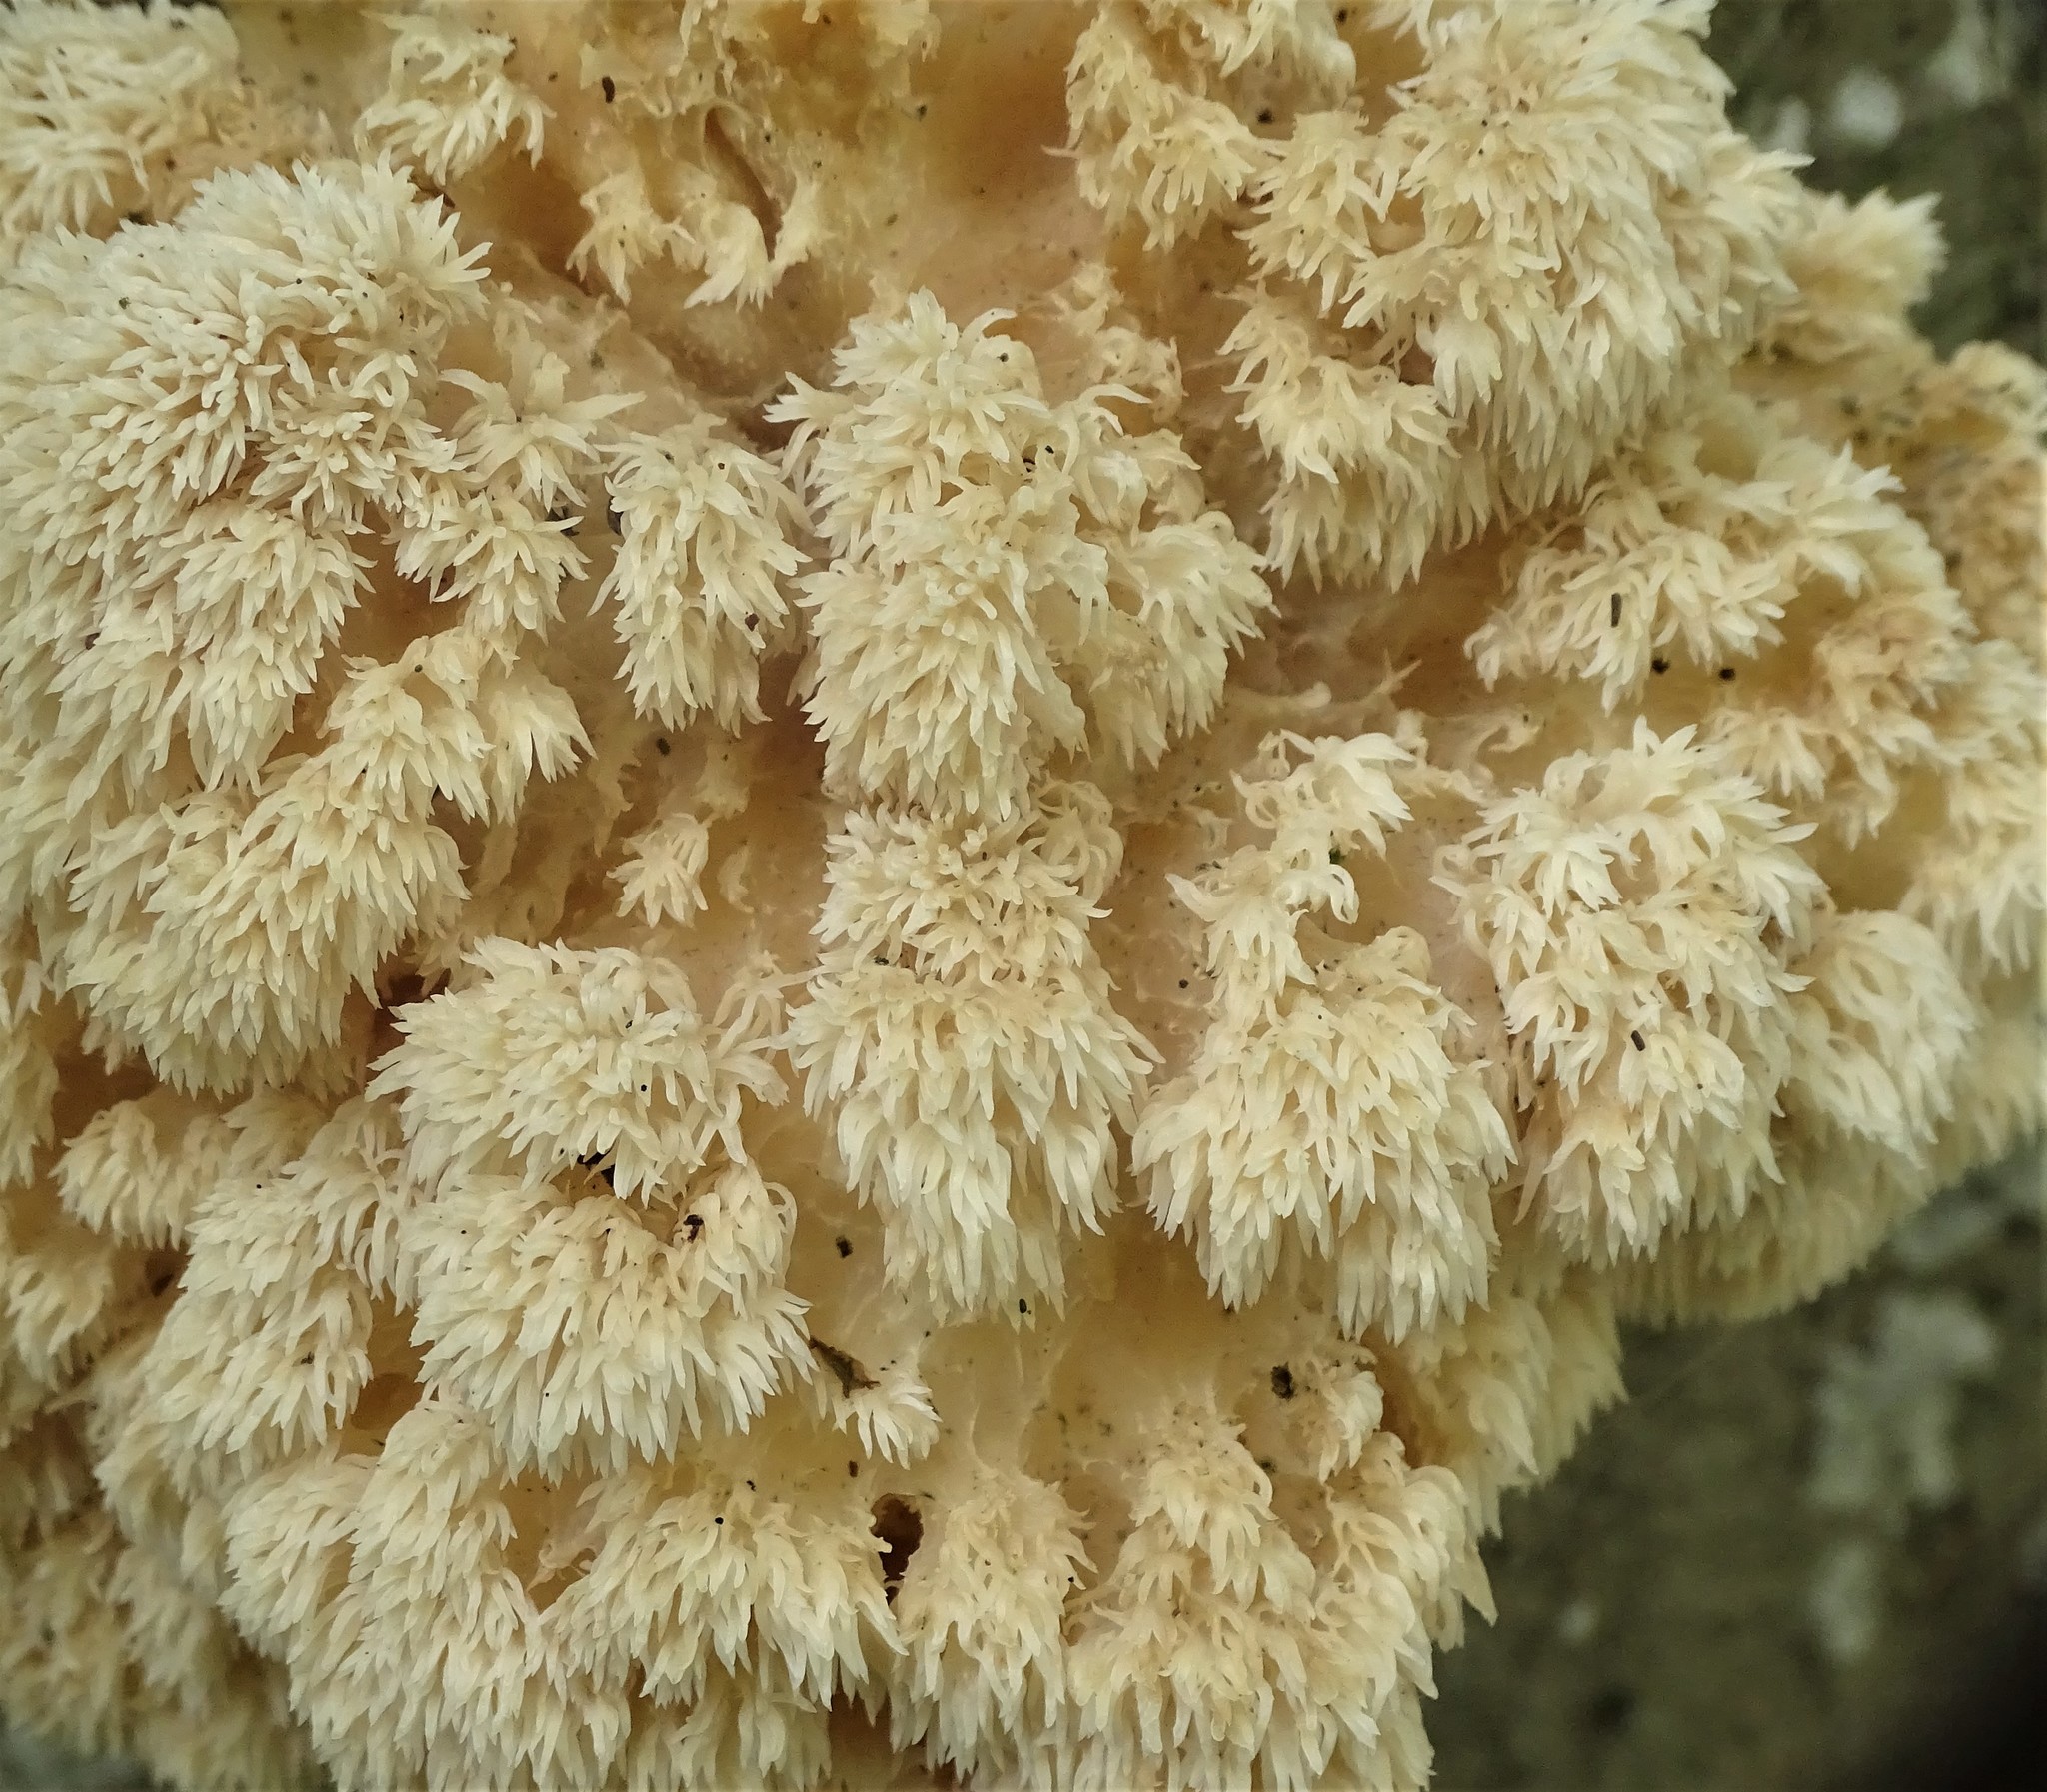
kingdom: Fungi
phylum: Basidiomycota
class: Agaricomycetes
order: Russulales
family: Hericiaceae
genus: Hericium
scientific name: Hericium americanum
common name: Bear's head tooth
